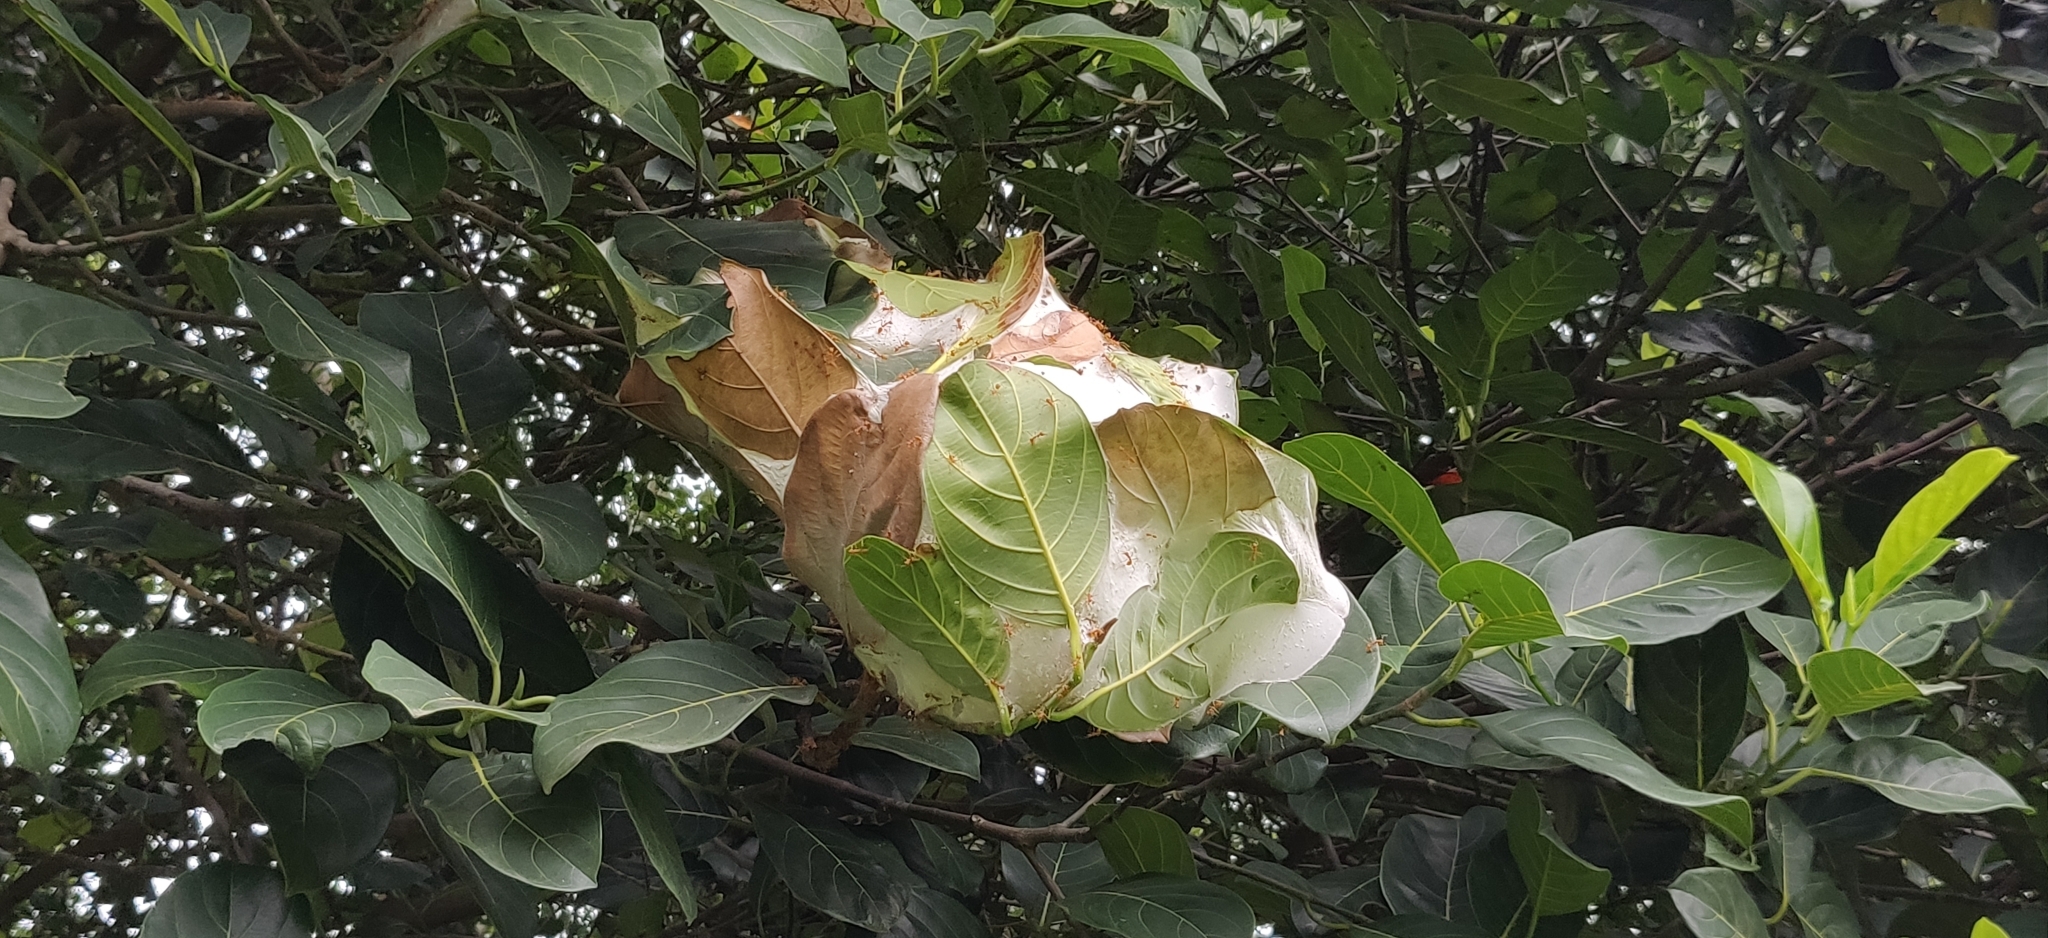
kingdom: Animalia
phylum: Arthropoda
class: Insecta
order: Hymenoptera
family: Formicidae
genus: Oecophylla
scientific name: Oecophylla smaragdina
